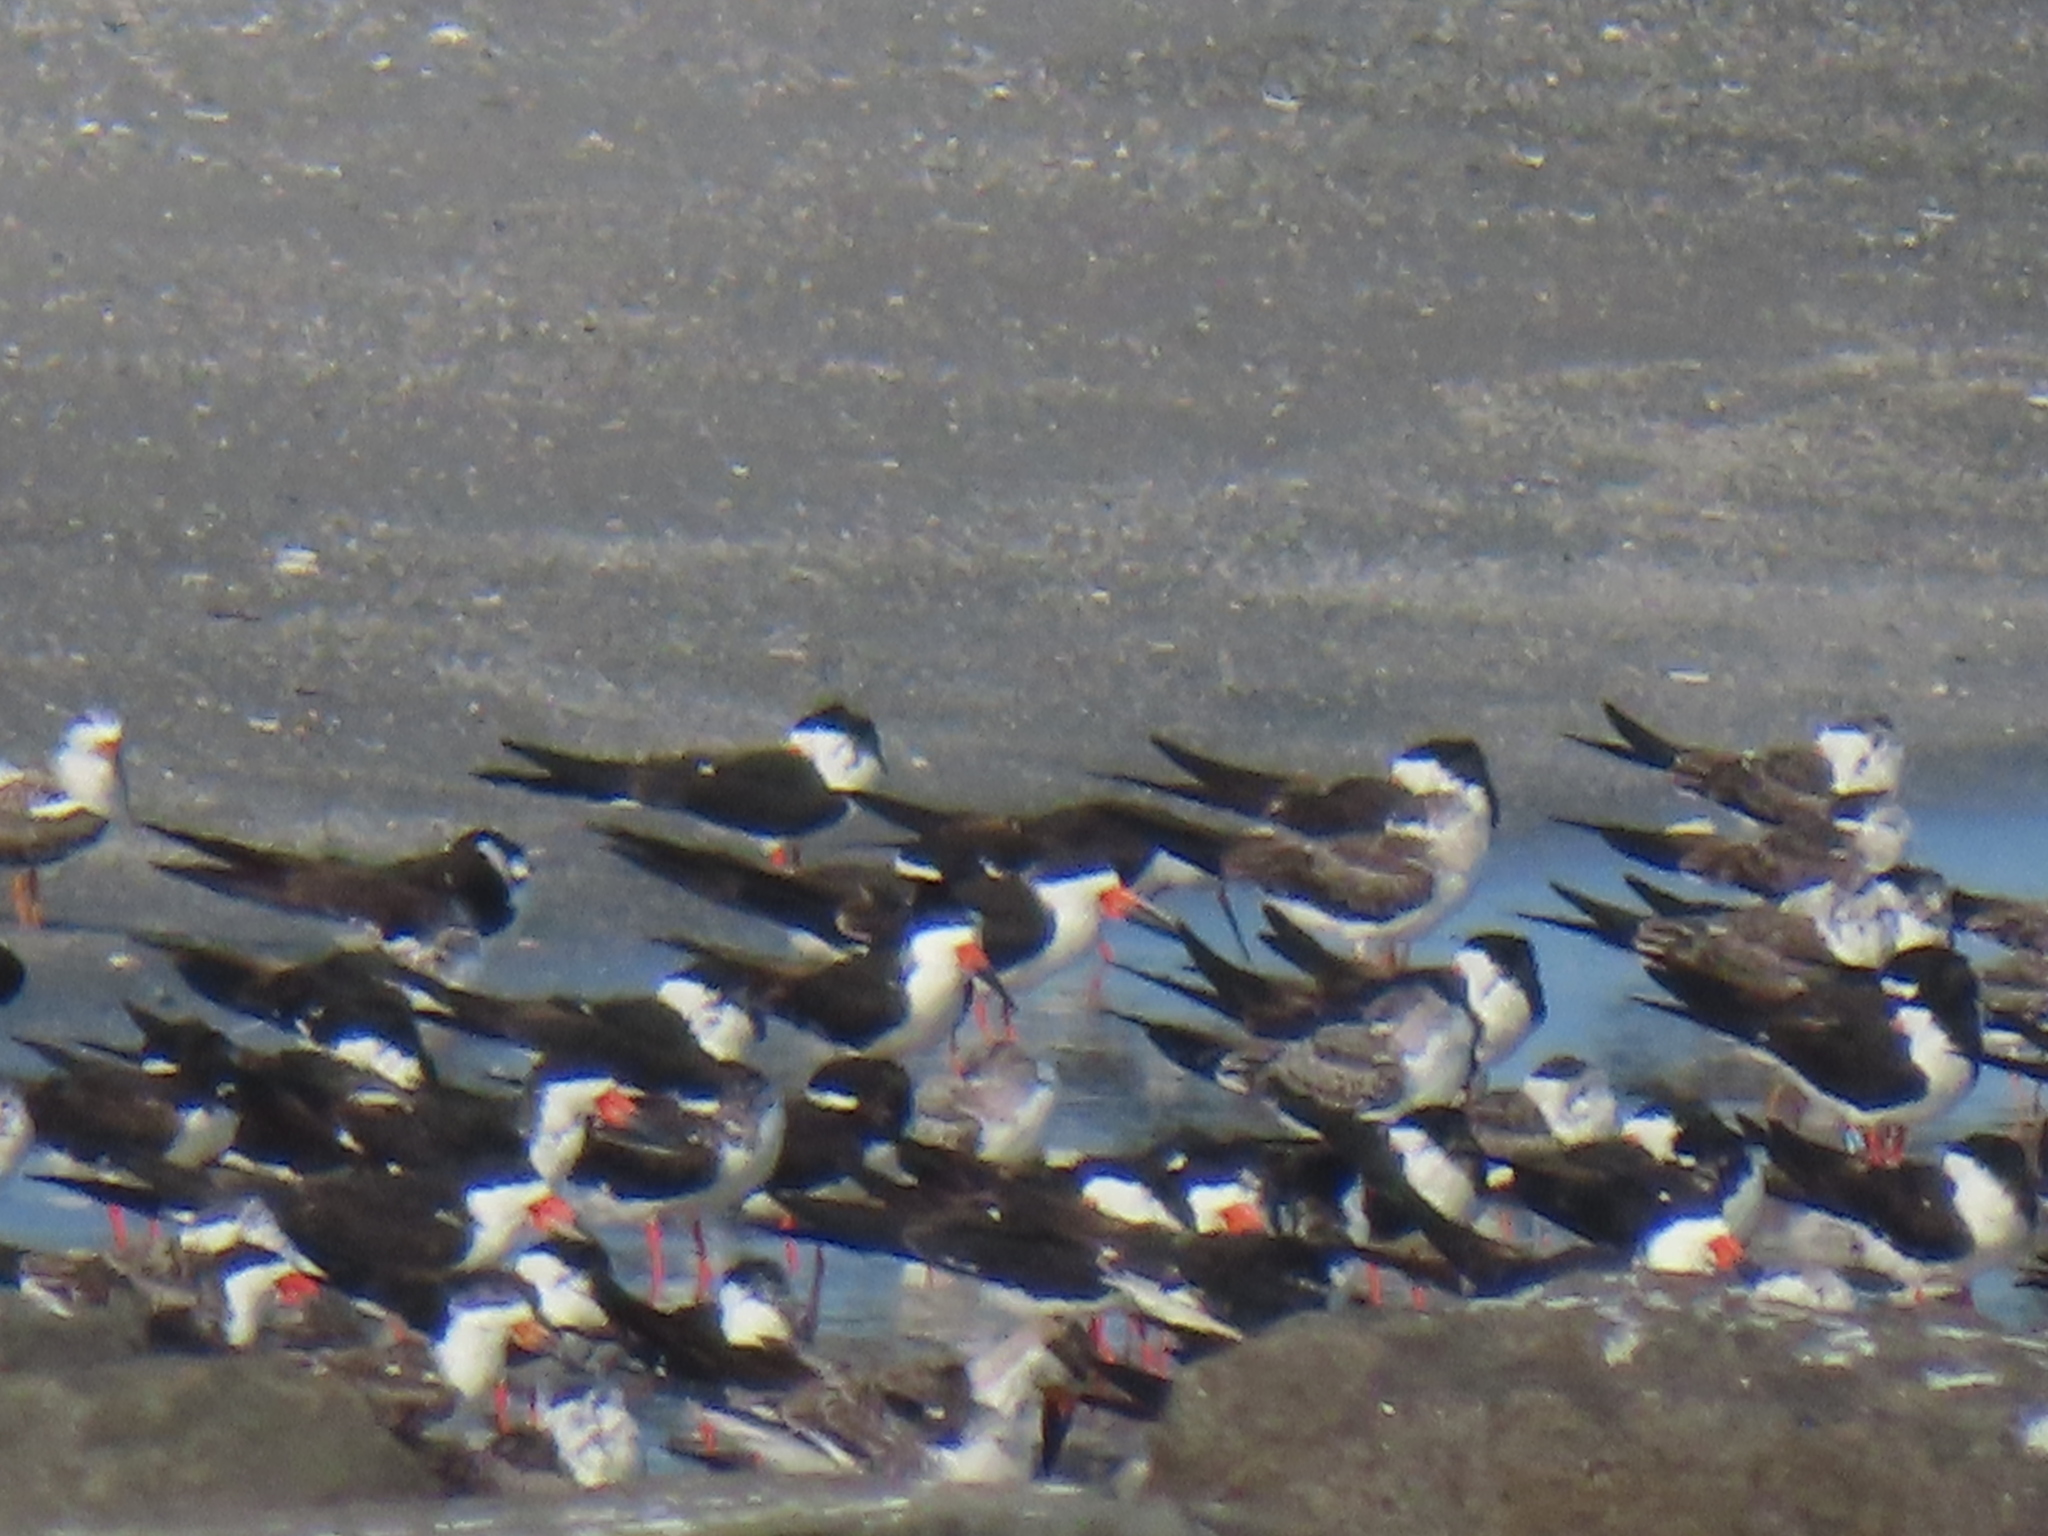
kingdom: Animalia
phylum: Chordata
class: Aves
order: Charadriiformes
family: Laridae
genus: Rynchops
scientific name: Rynchops niger
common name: Black skimmer
